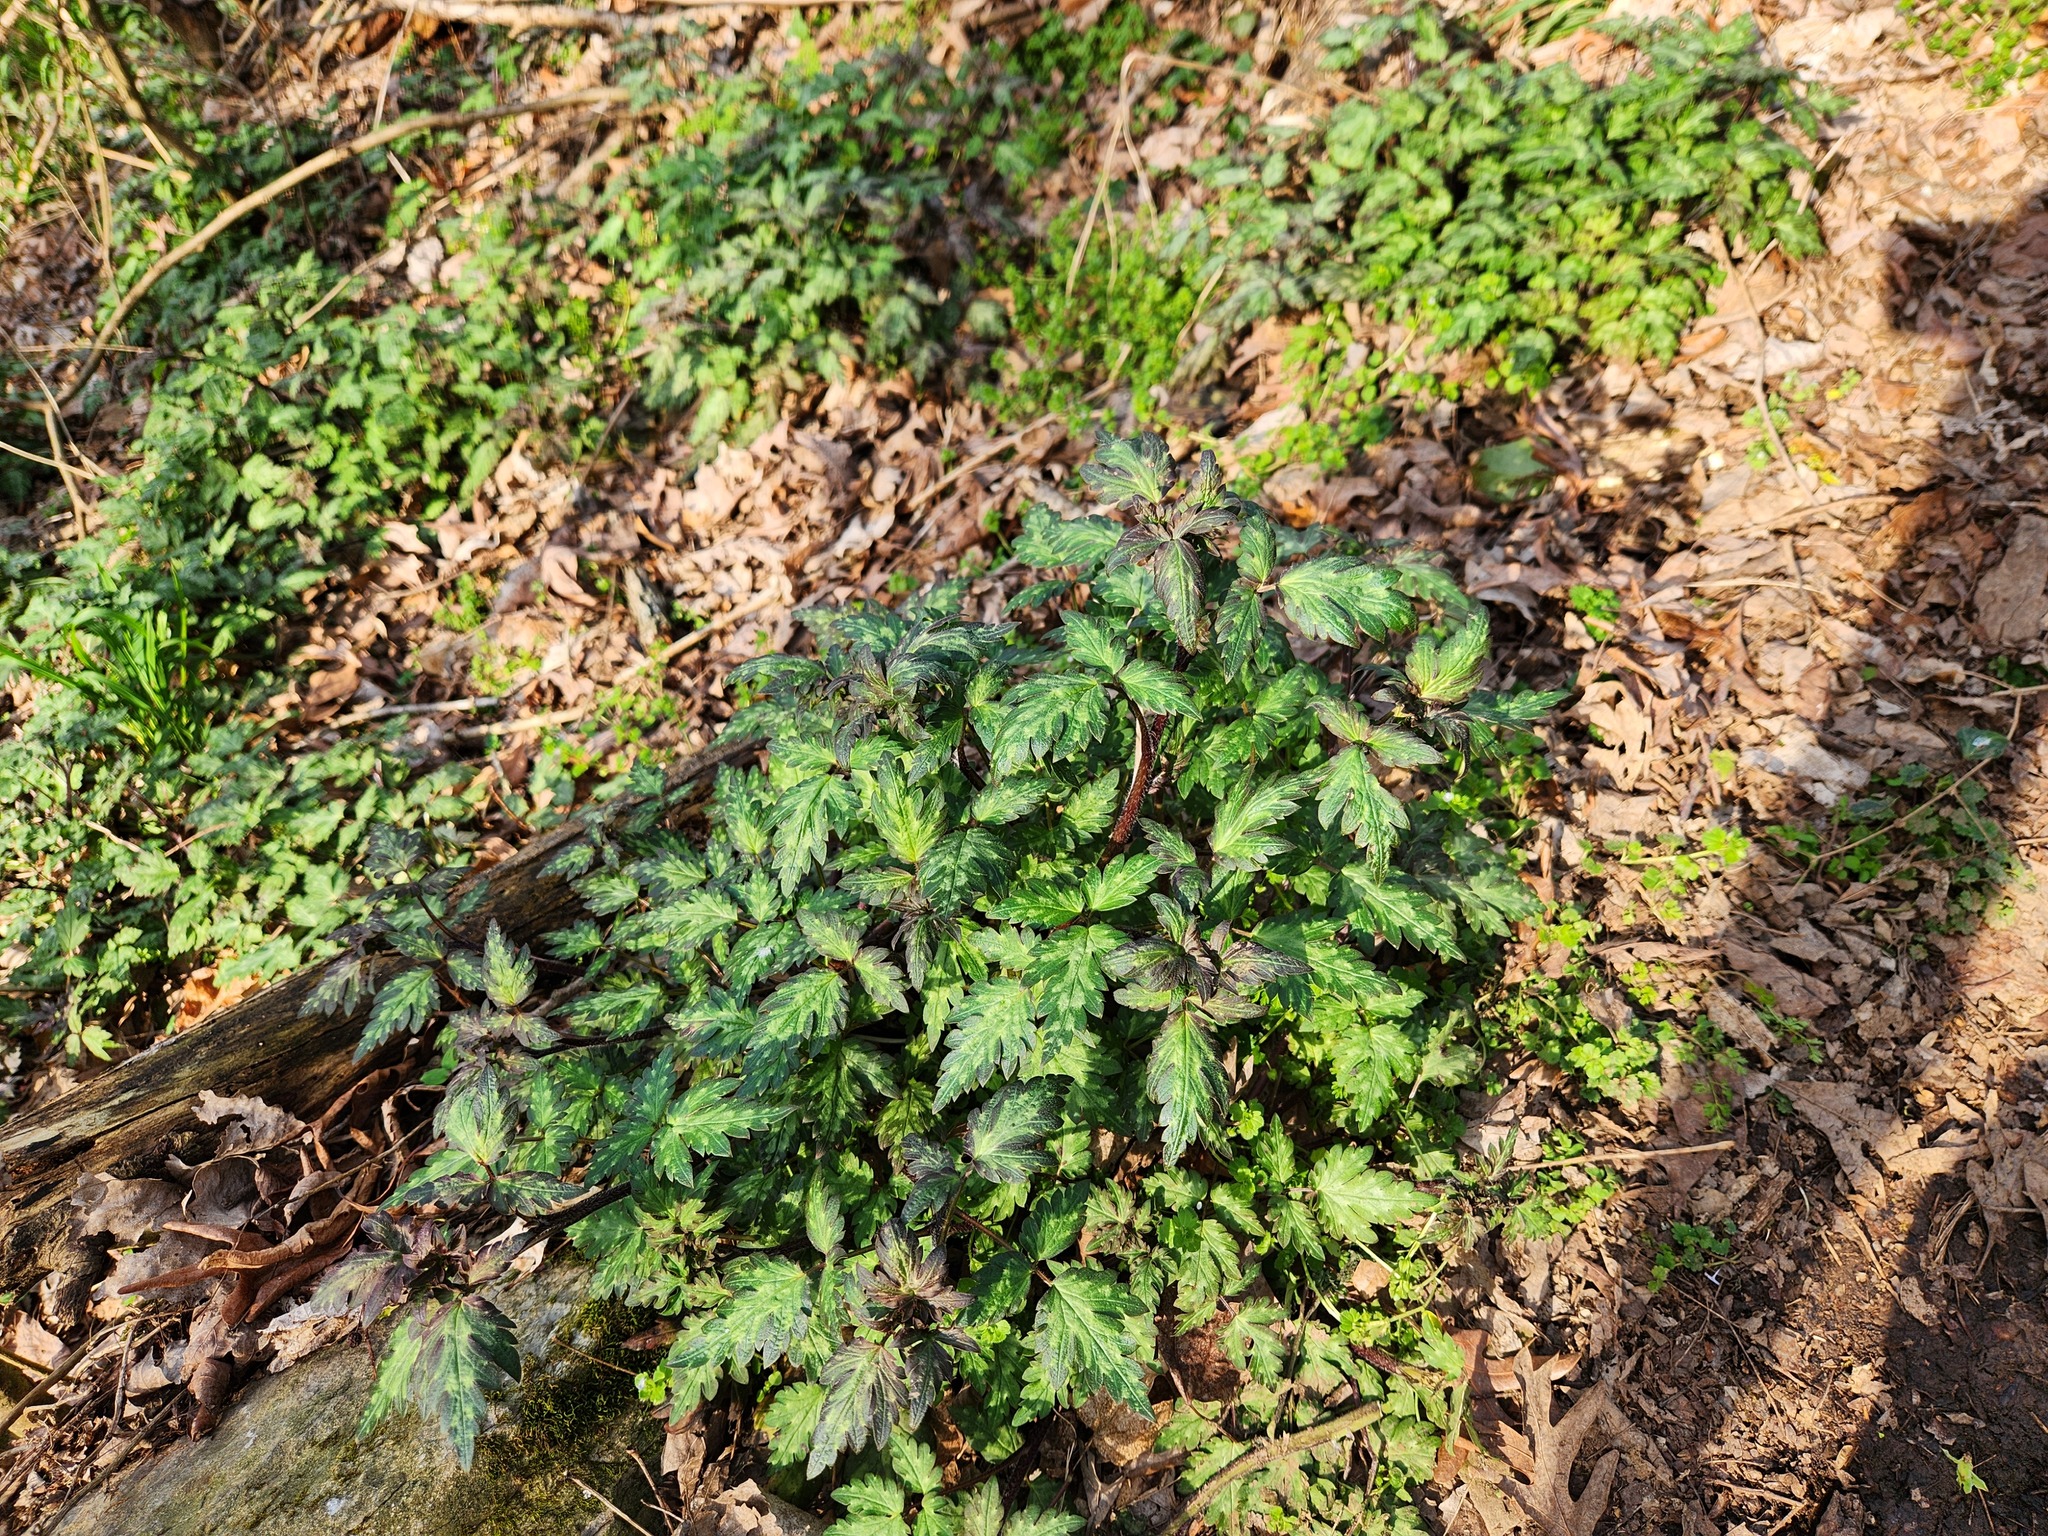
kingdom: Plantae
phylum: Tracheophyta
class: Magnoliopsida
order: Boraginales
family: Hydrophyllaceae
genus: Phacelia
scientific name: Phacelia bipinnatifida
